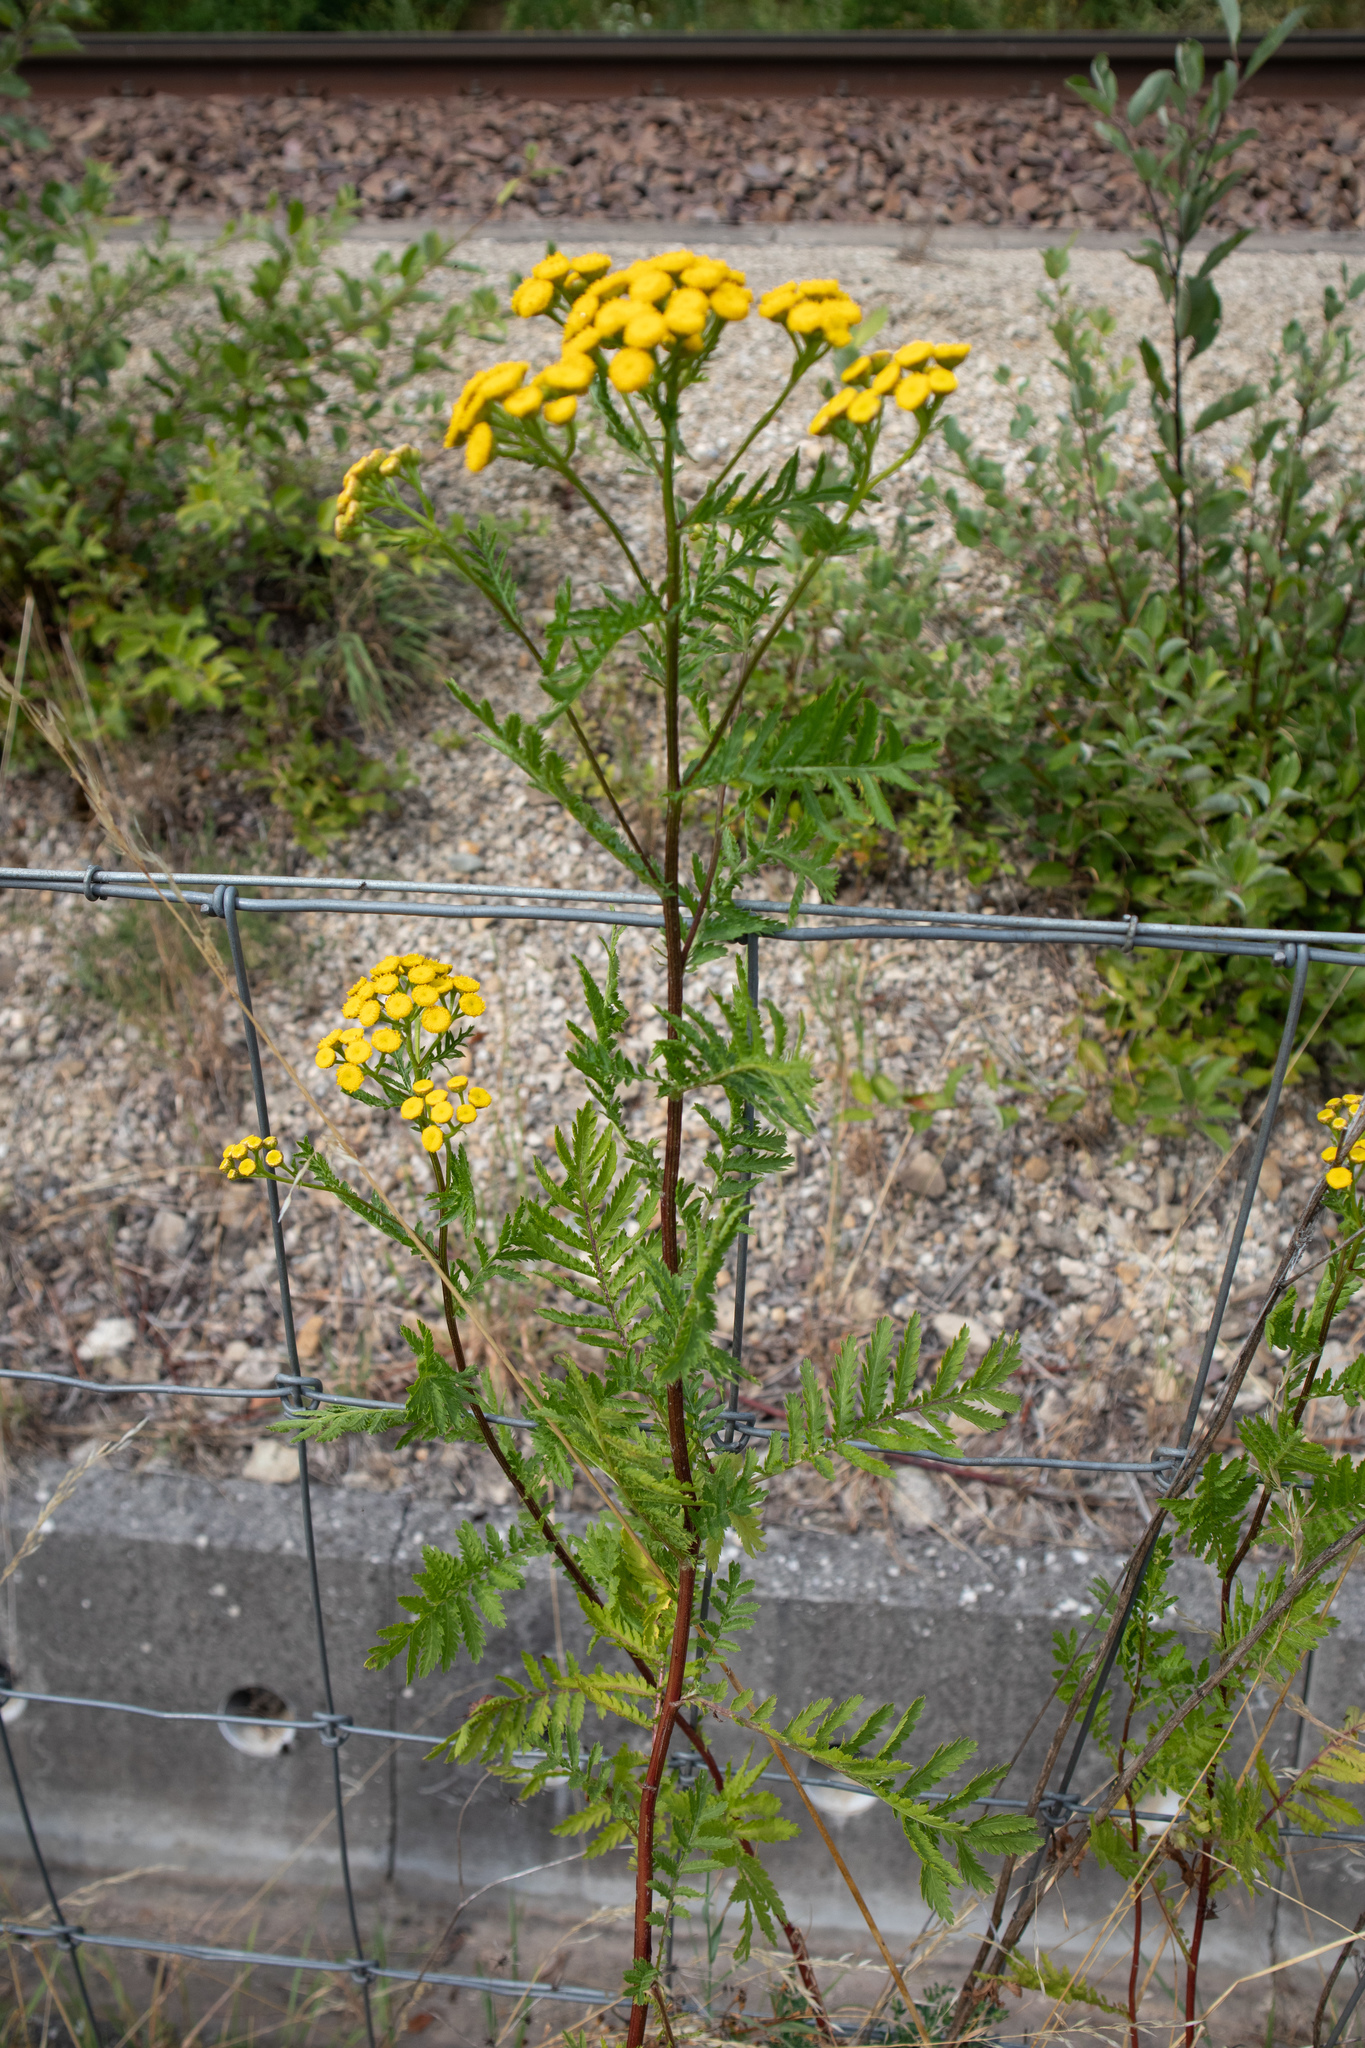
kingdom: Plantae
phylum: Tracheophyta
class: Magnoliopsida
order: Asterales
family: Asteraceae
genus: Tanacetum
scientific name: Tanacetum vulgare
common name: Common tansy
